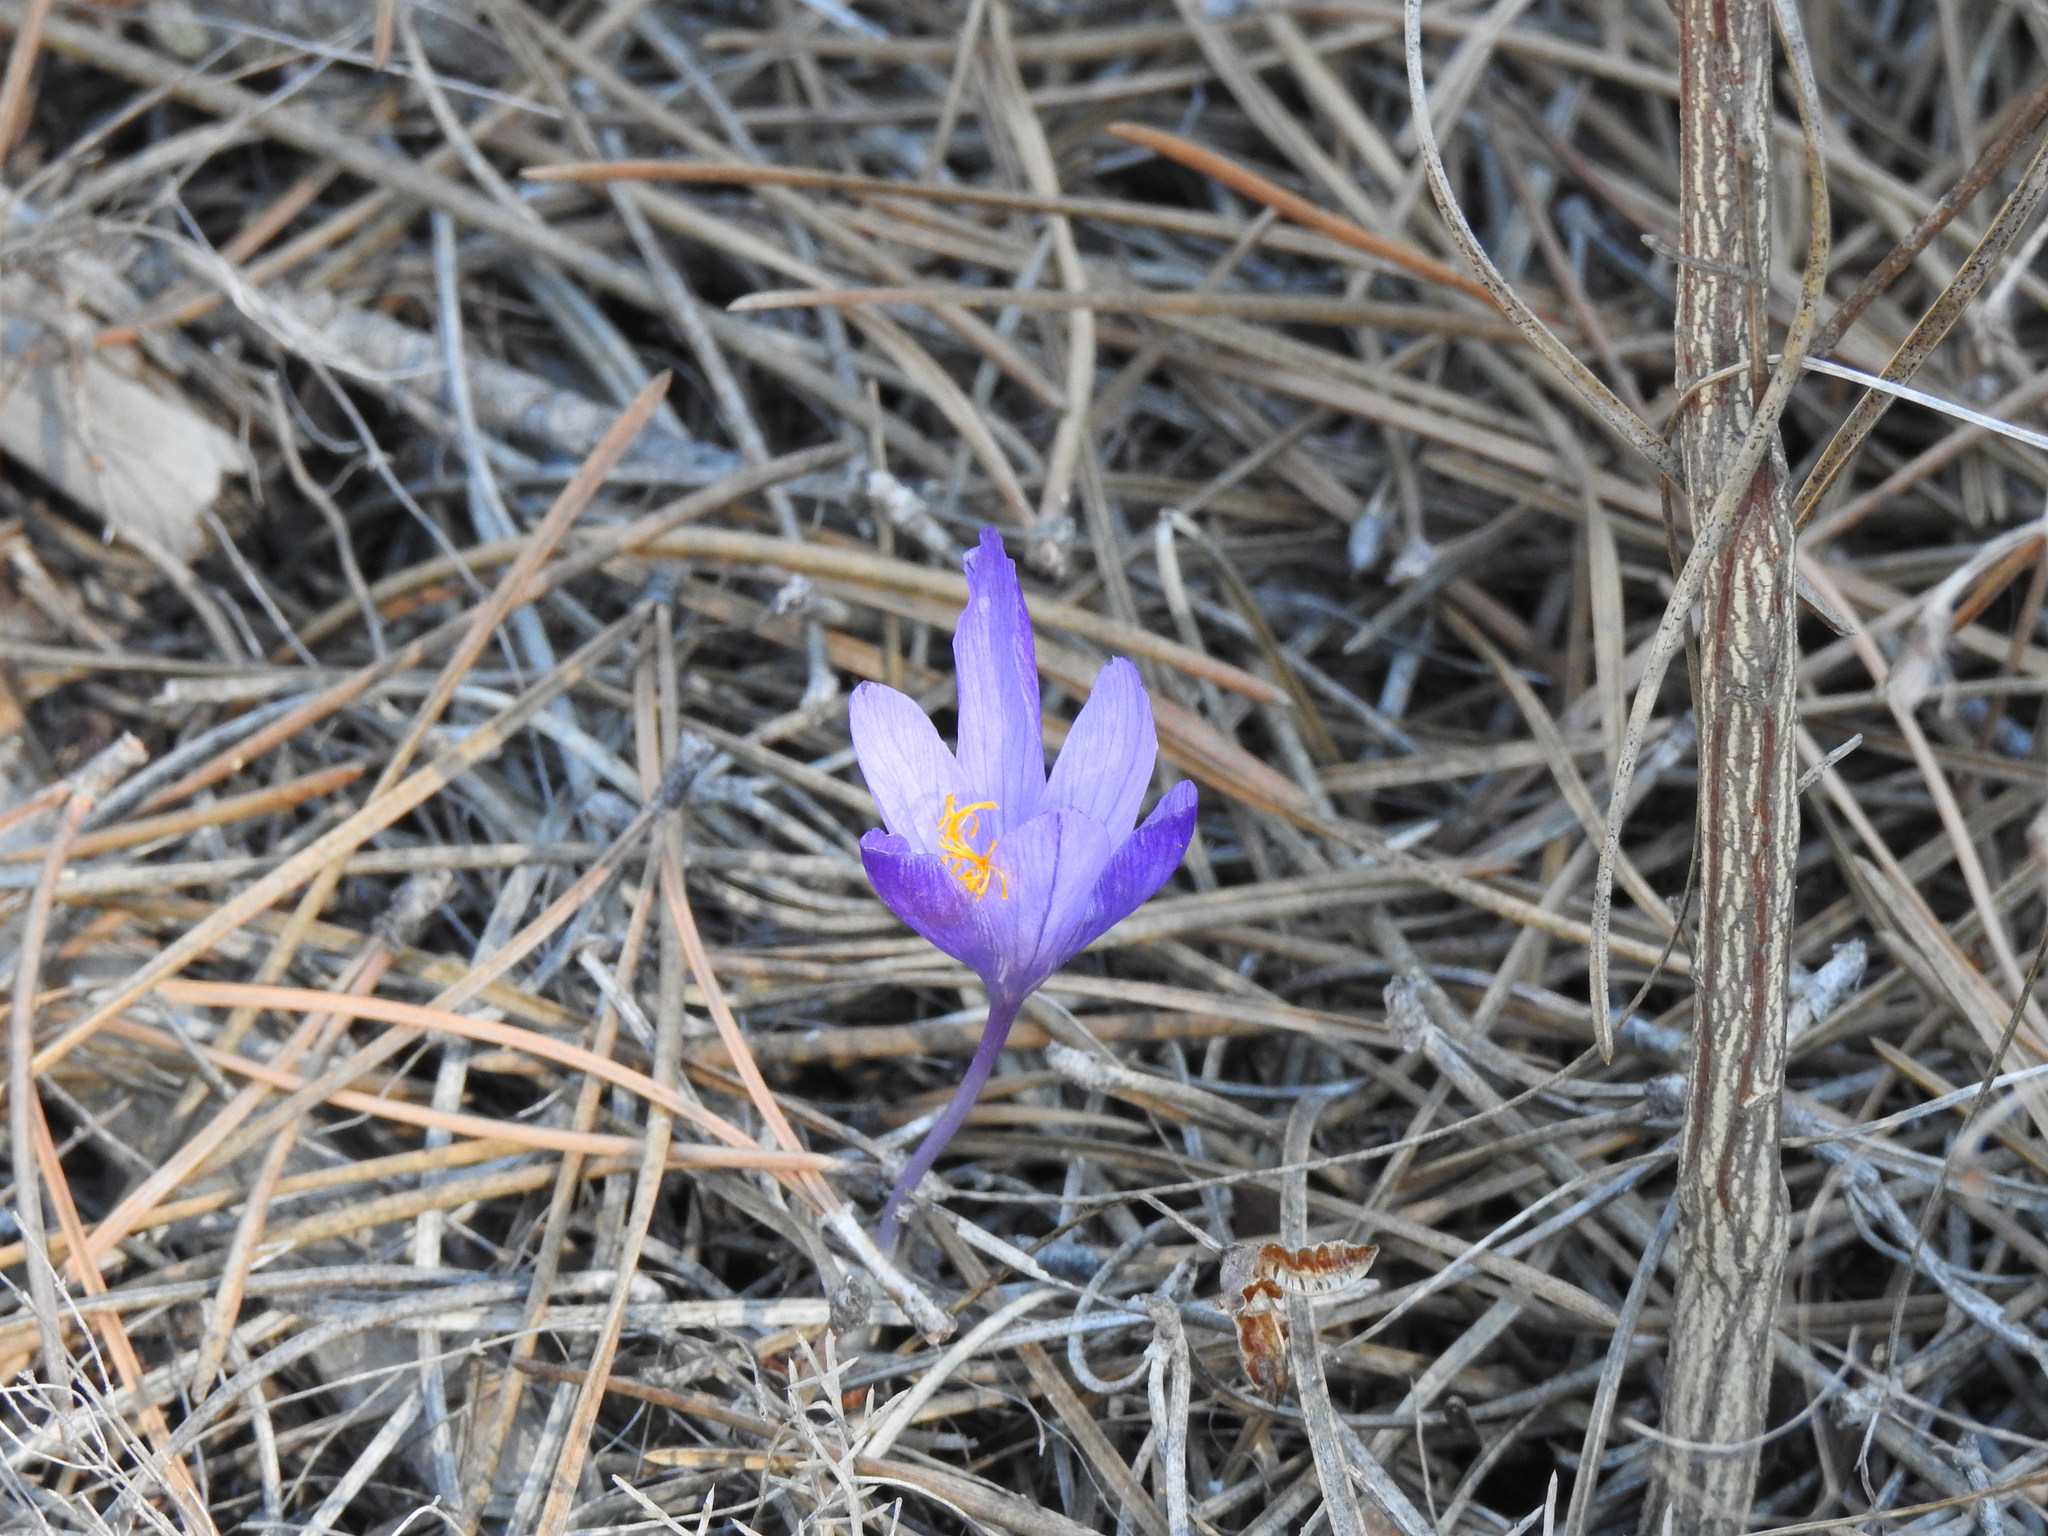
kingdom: Plantae
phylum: Tracheophyta
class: Liliopsida
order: Asparagales
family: Iridaceae
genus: Crocus
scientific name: Crocus serotinus
